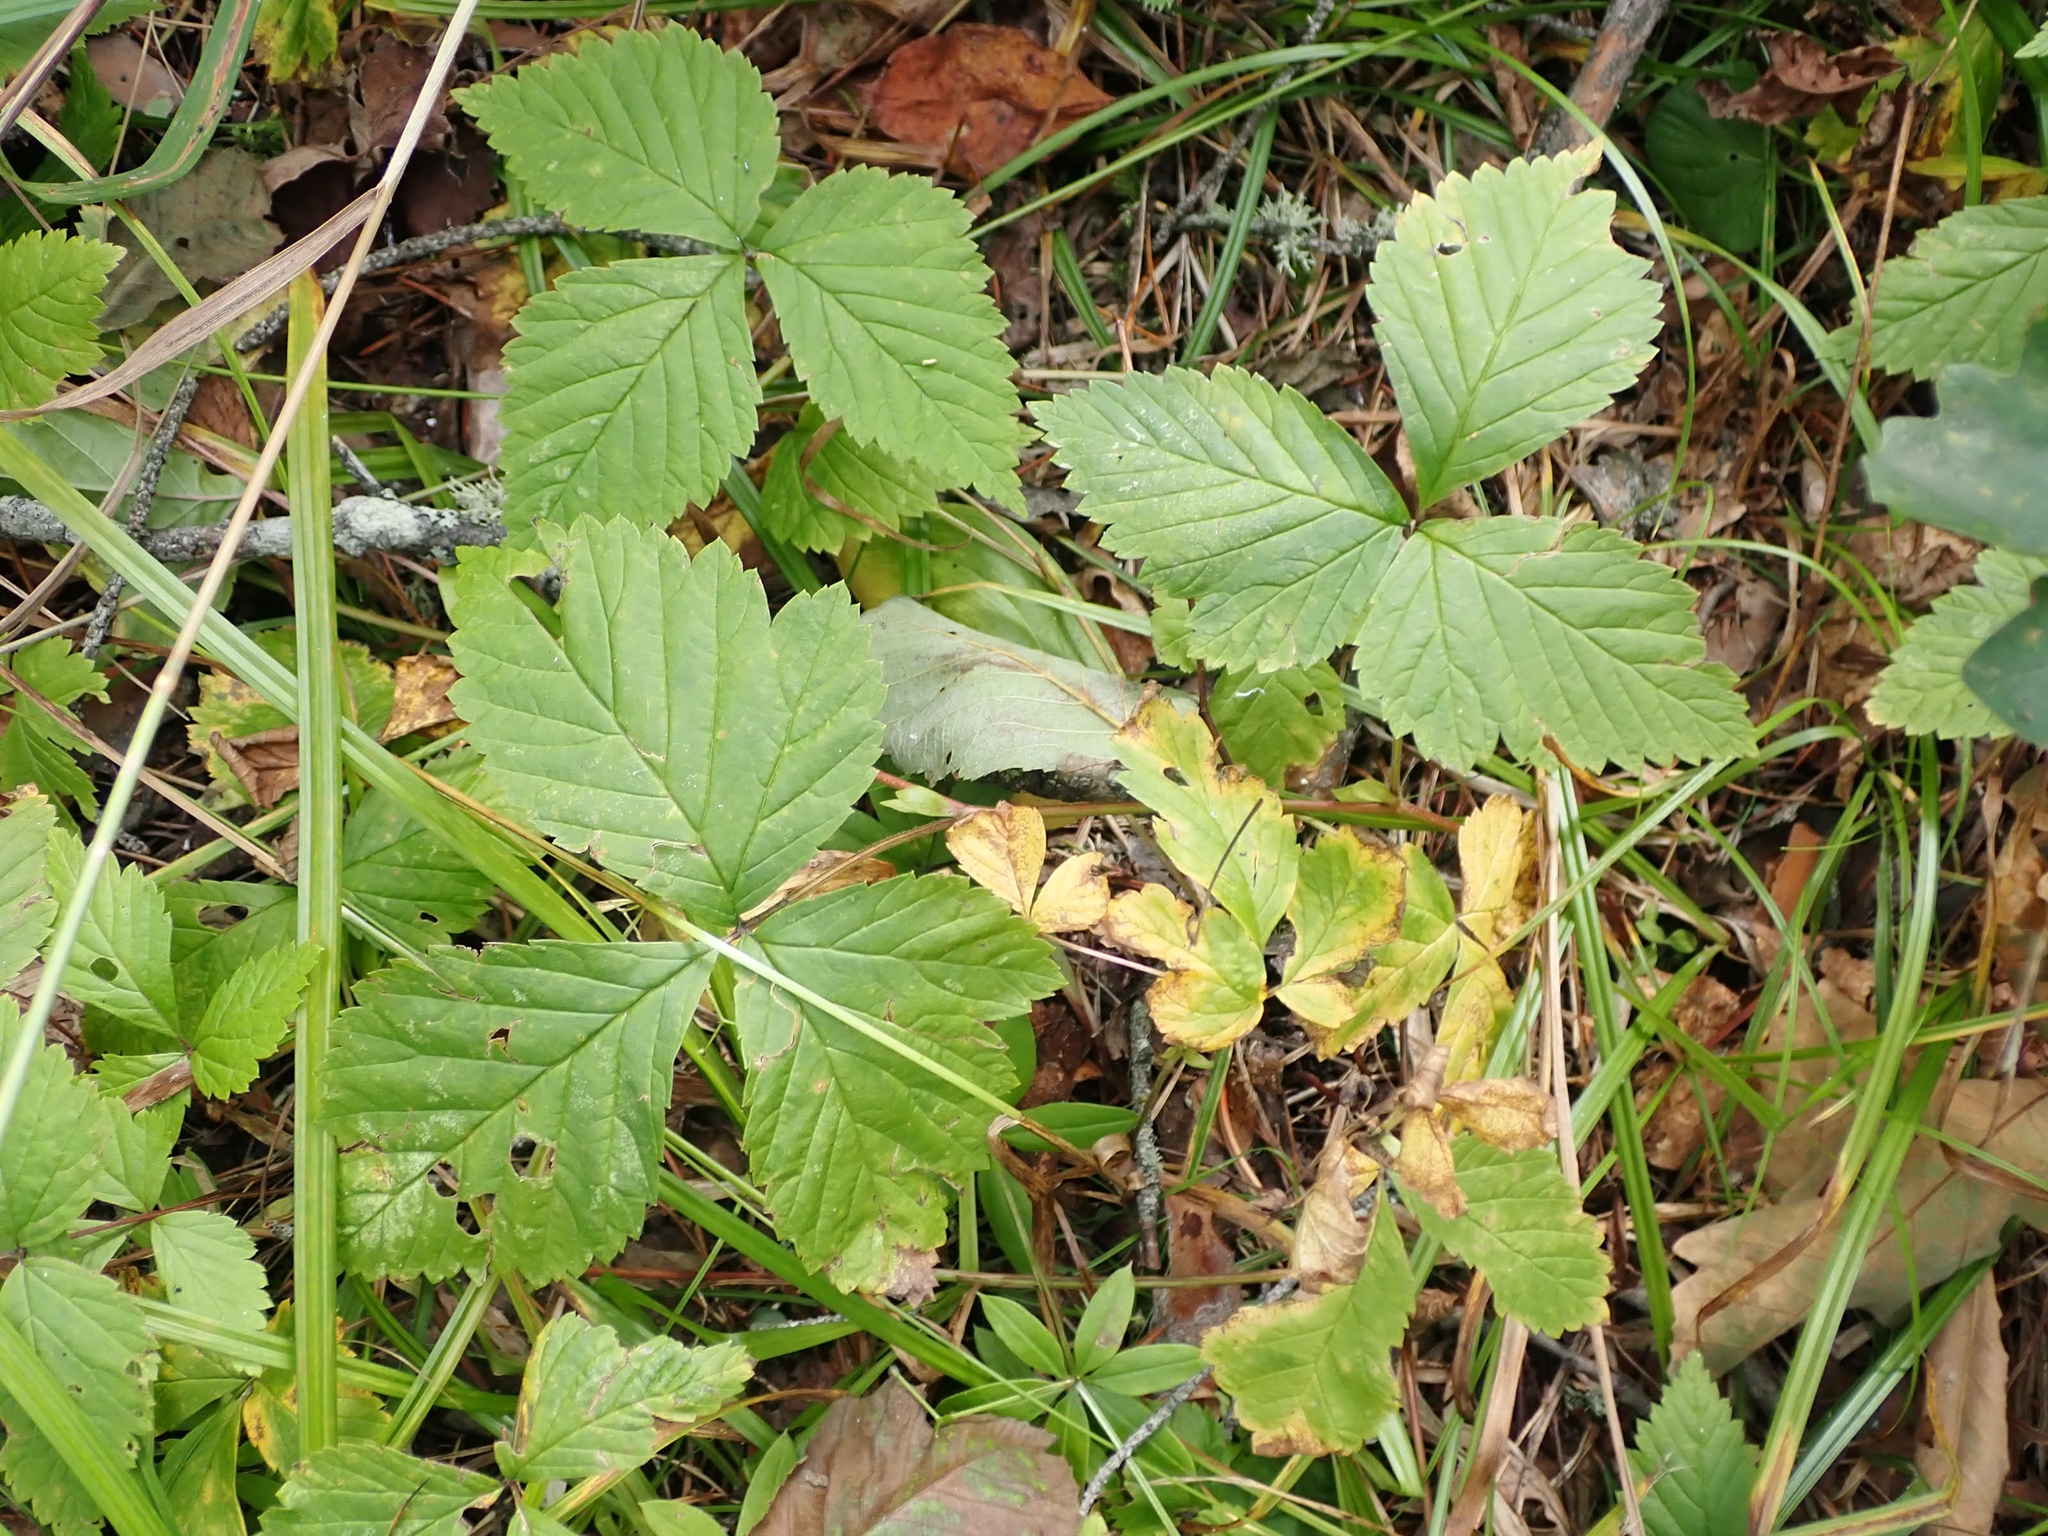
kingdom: Plantae
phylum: Tracheophyta
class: Magnoliopsida
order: Rosales
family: Rosaceae
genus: Rubus
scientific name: Rubus pubescens
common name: Dwarf raspberry
